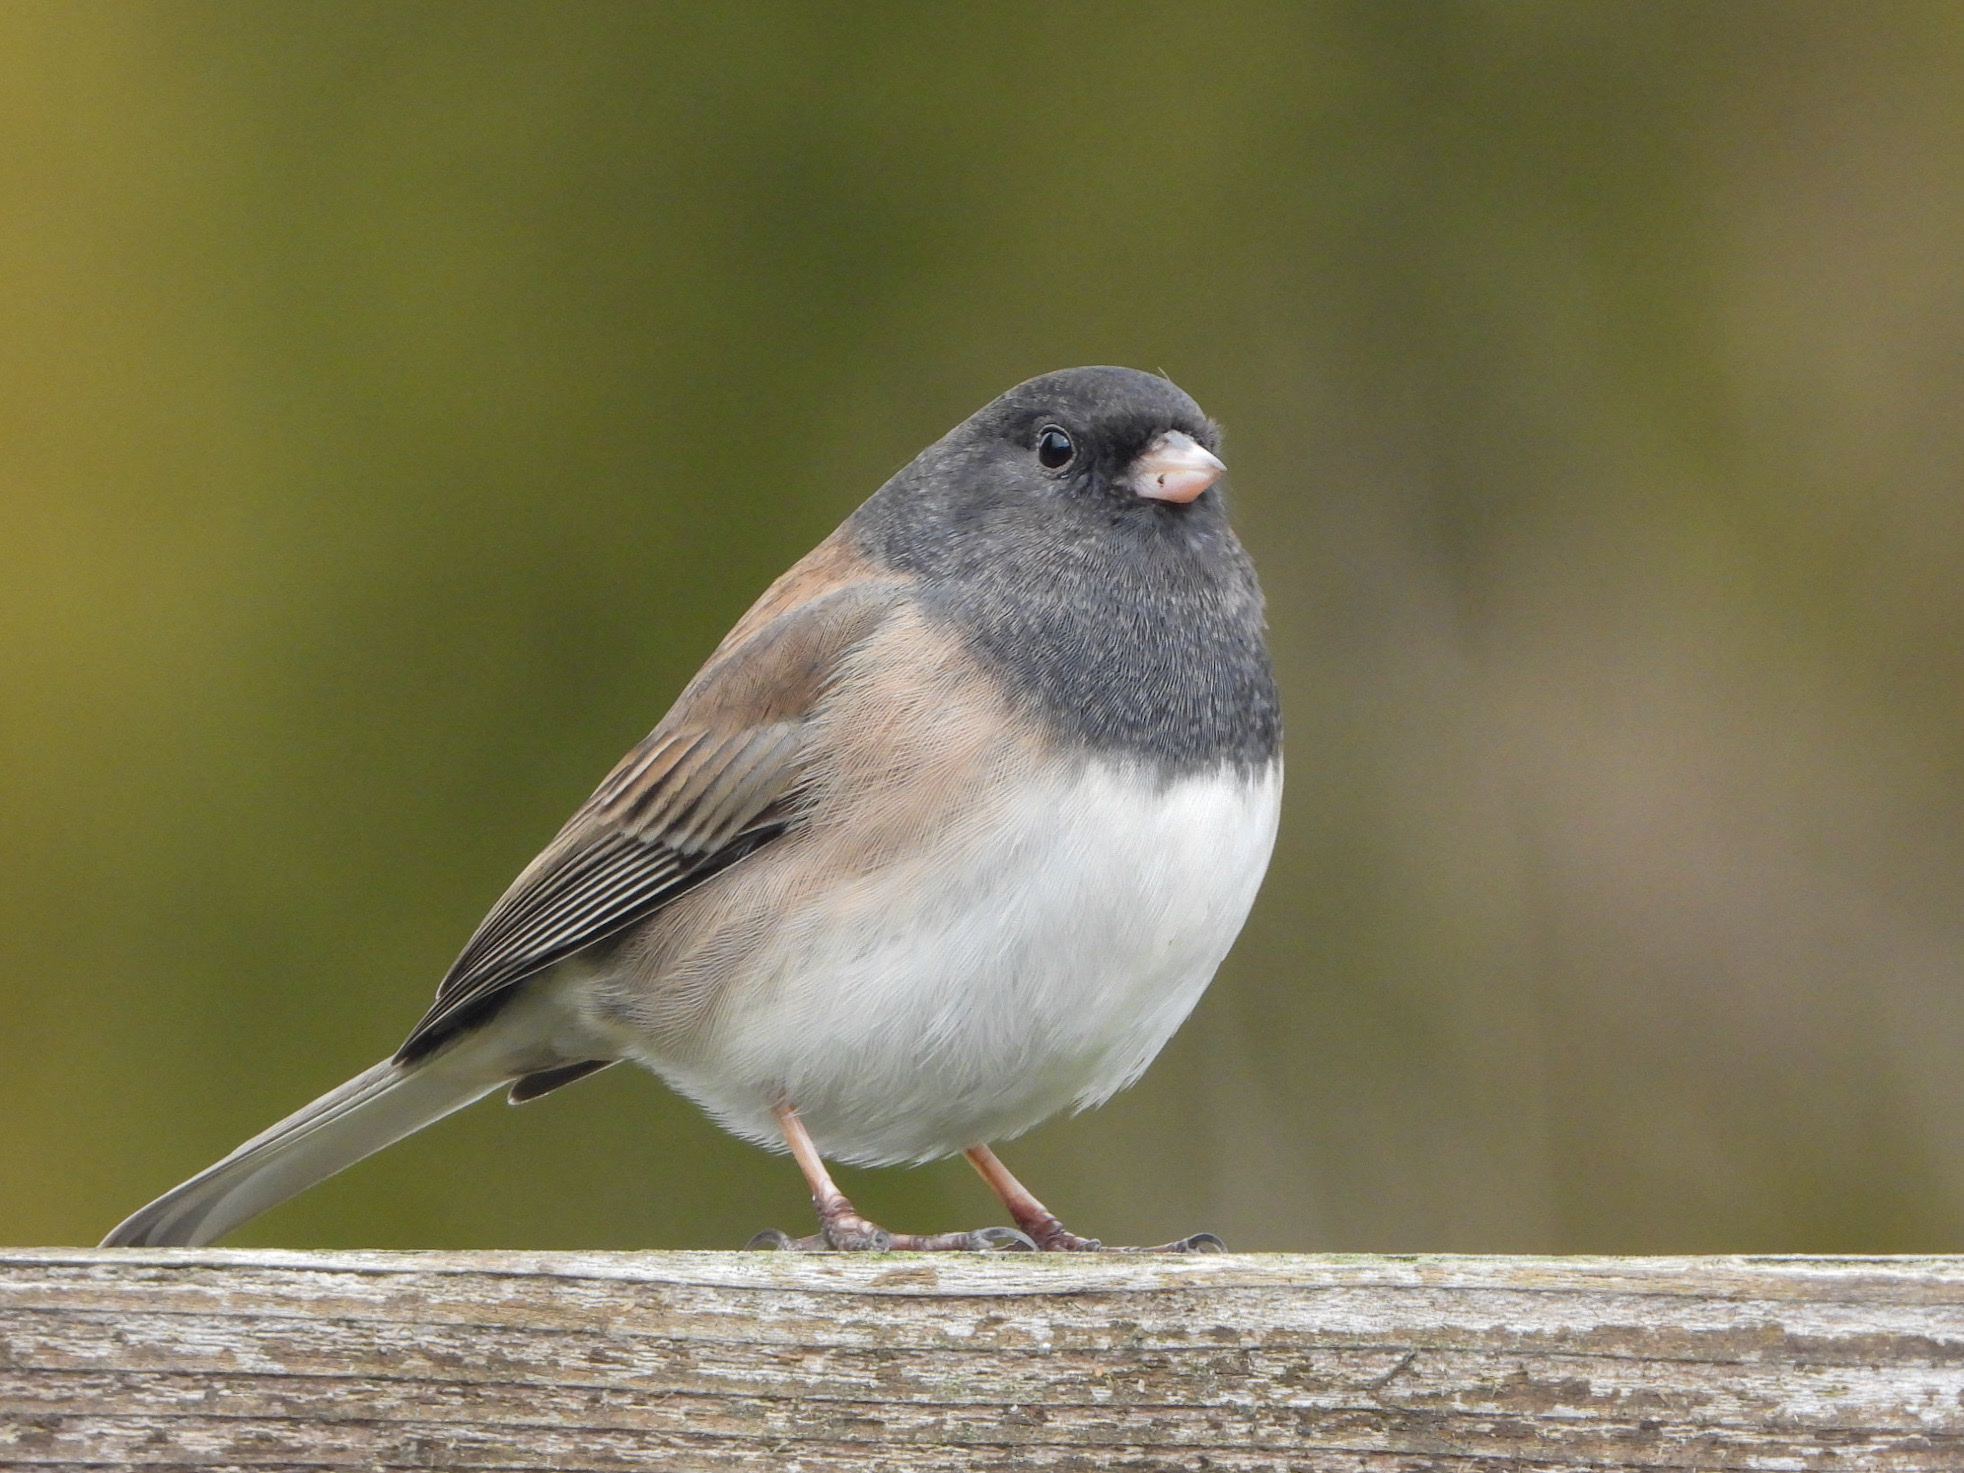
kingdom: Animalia
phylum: Chordata
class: Aves
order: Passeriformes
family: Passerellidae
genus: Junco
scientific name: Junco hyemalis
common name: Dark-eyed junco
